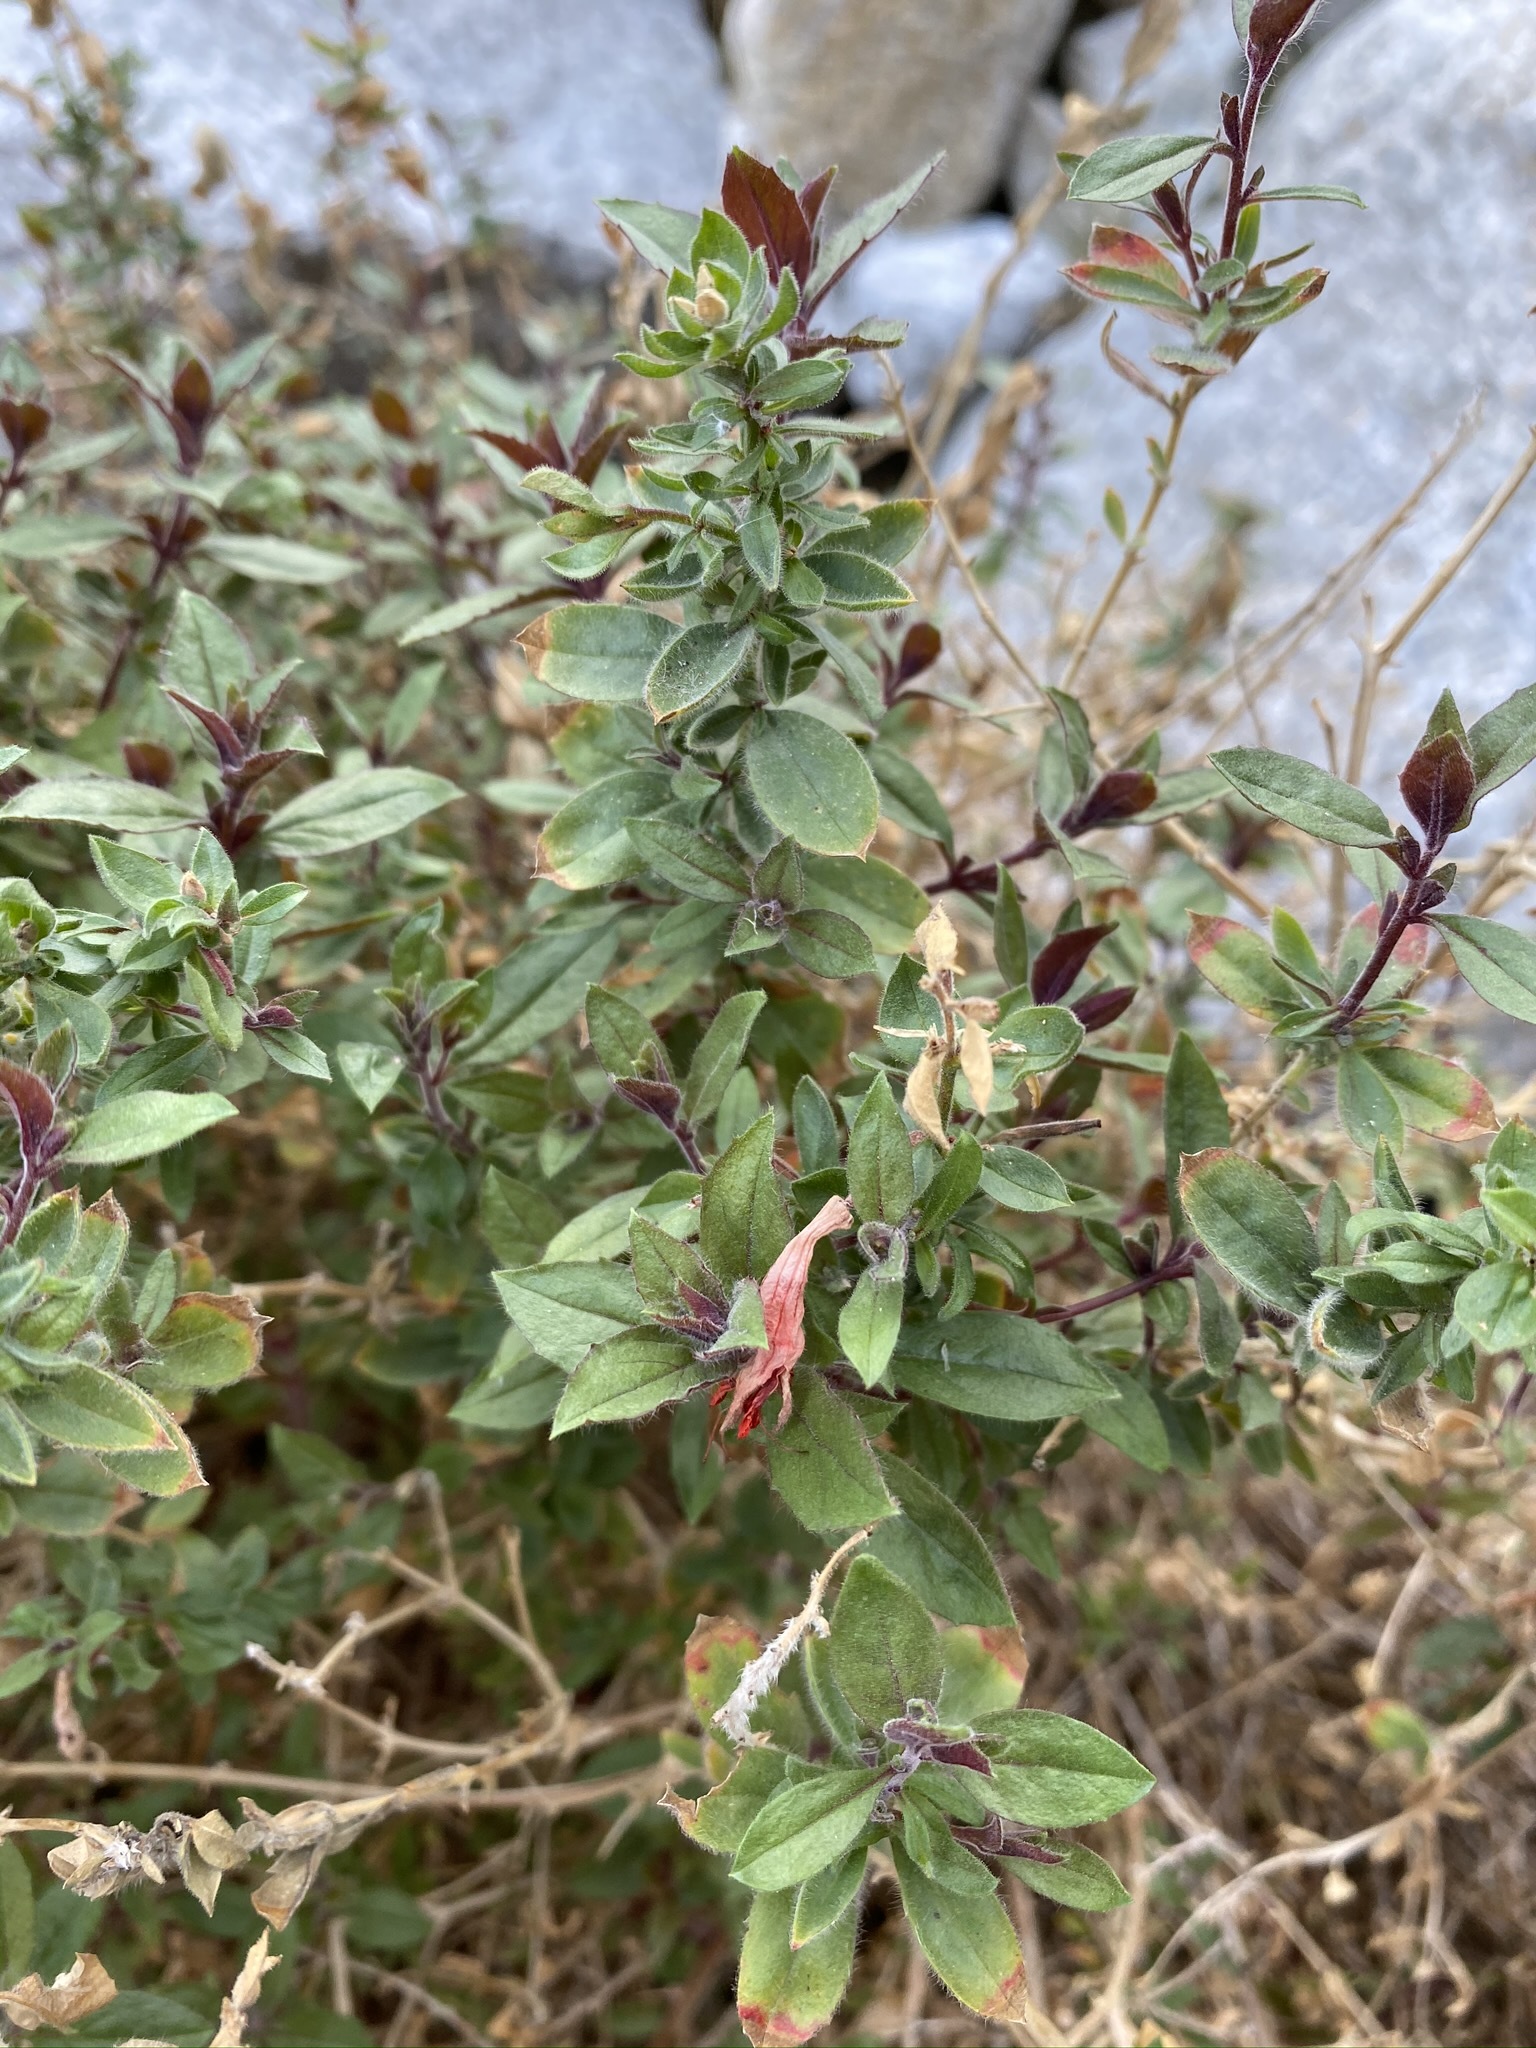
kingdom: Plantae
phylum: Tracheophyta
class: Magnoliopsida
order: Myrtales
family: Onagraceae
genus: Epilobium
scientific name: Epilobium canum
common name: California-fuchsia
